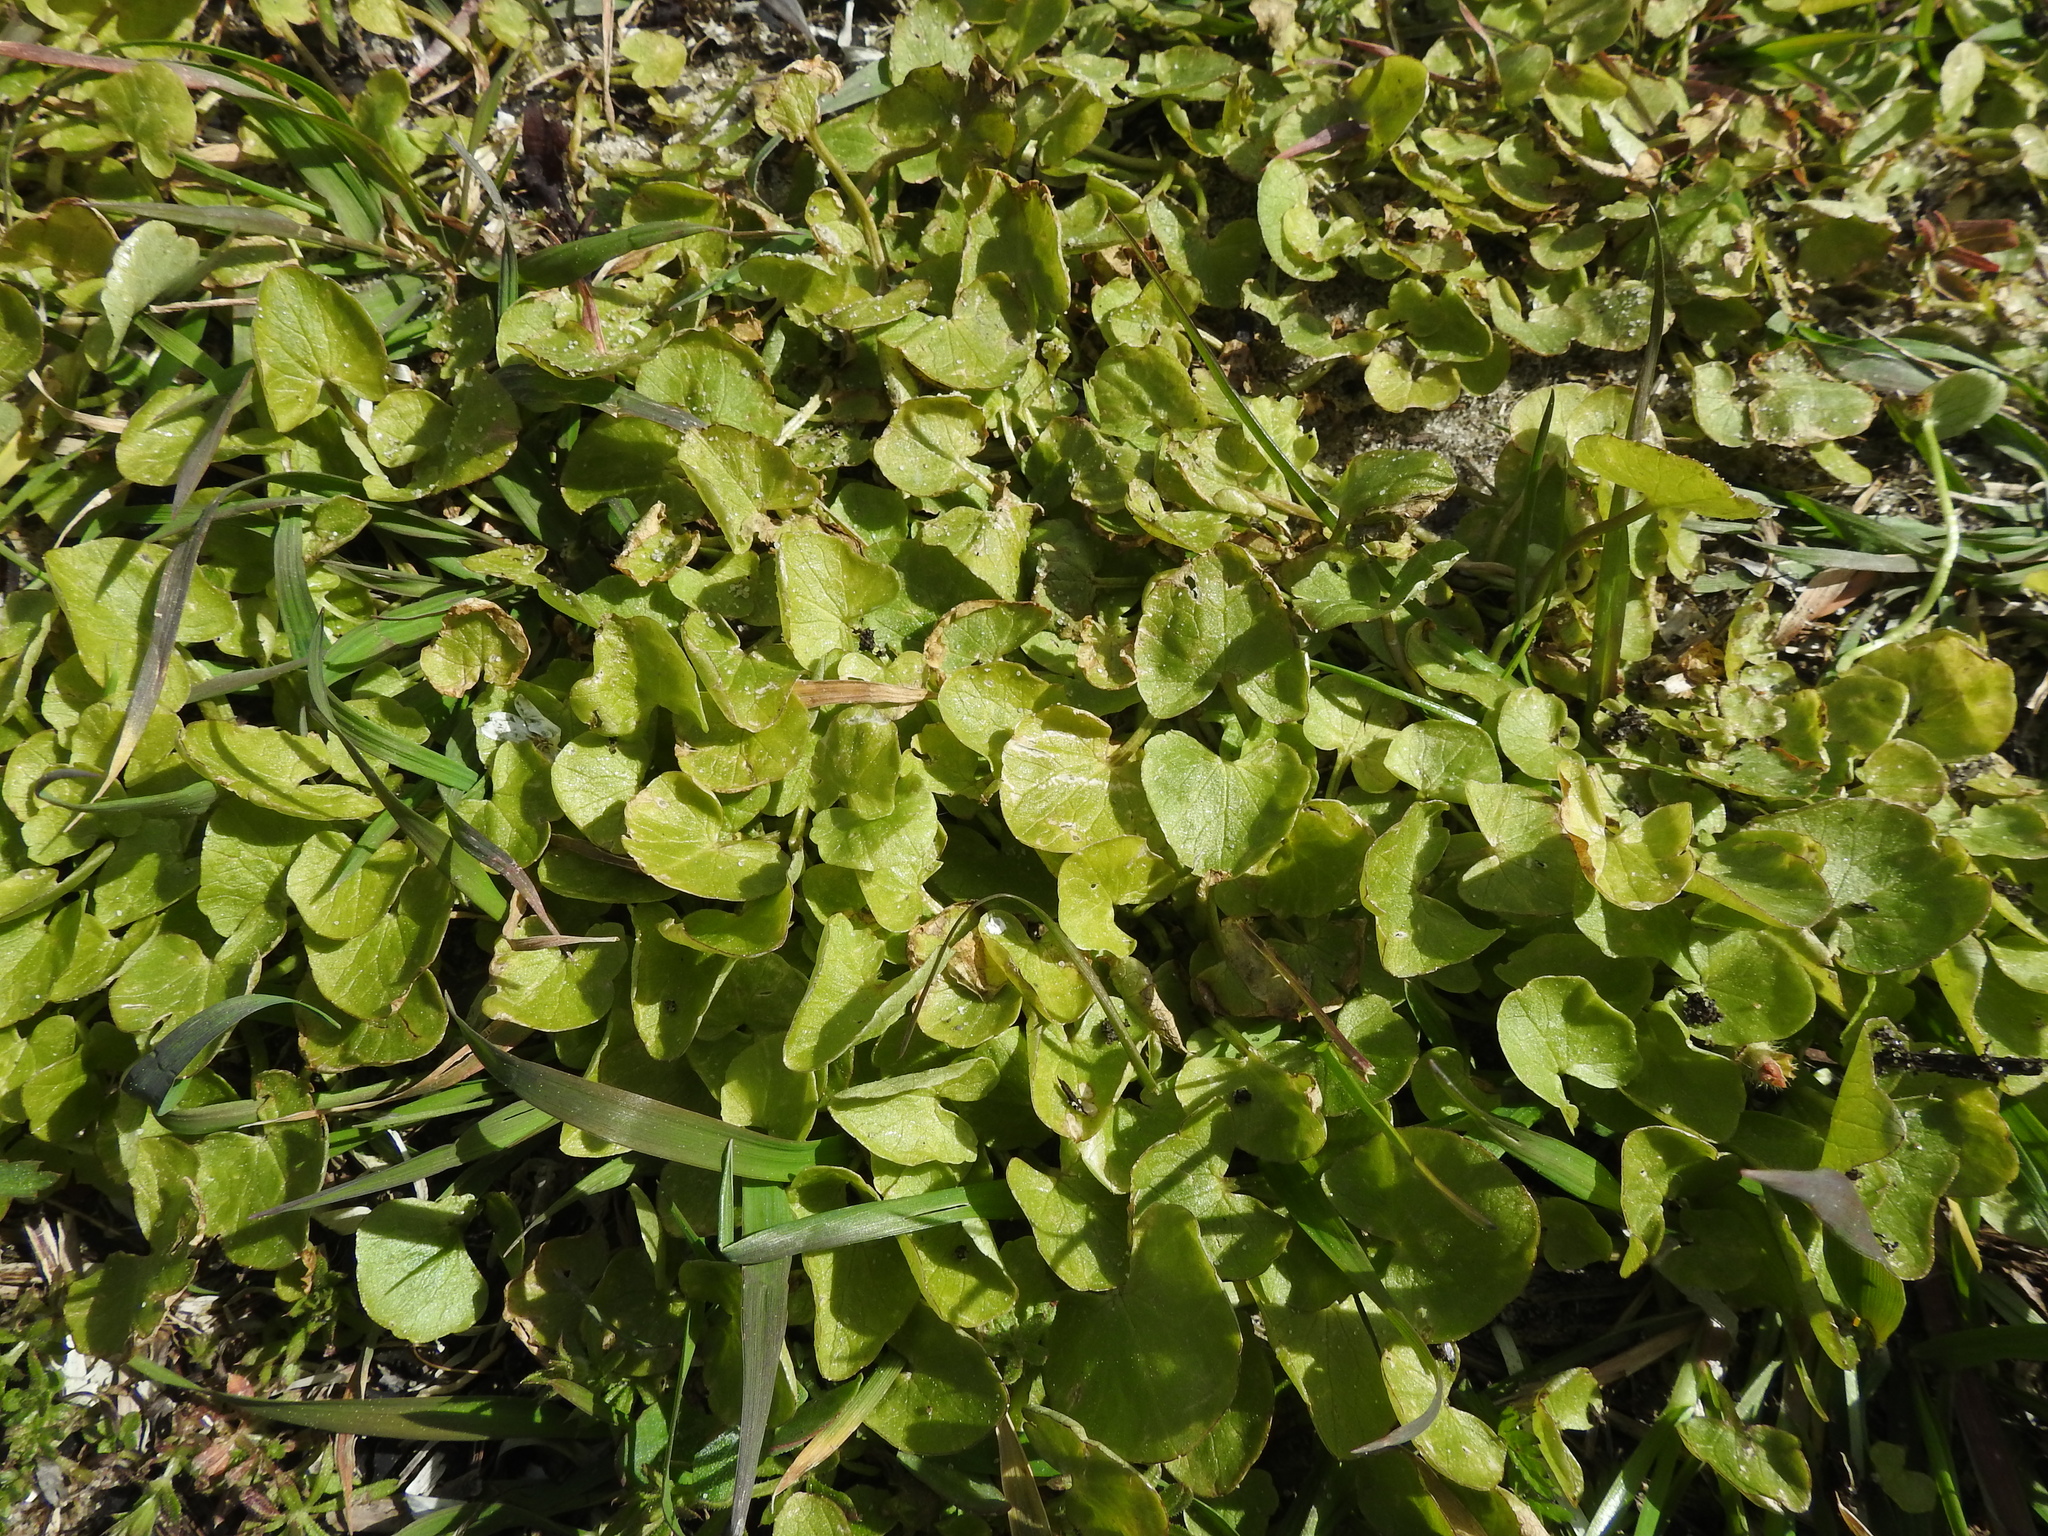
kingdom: Plantae
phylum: Tracheophyta
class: Magnoliopsida
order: Ranunculales
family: Ranunculaceae
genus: Ficaria
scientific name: Ficaria verna
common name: Lesser celandine
